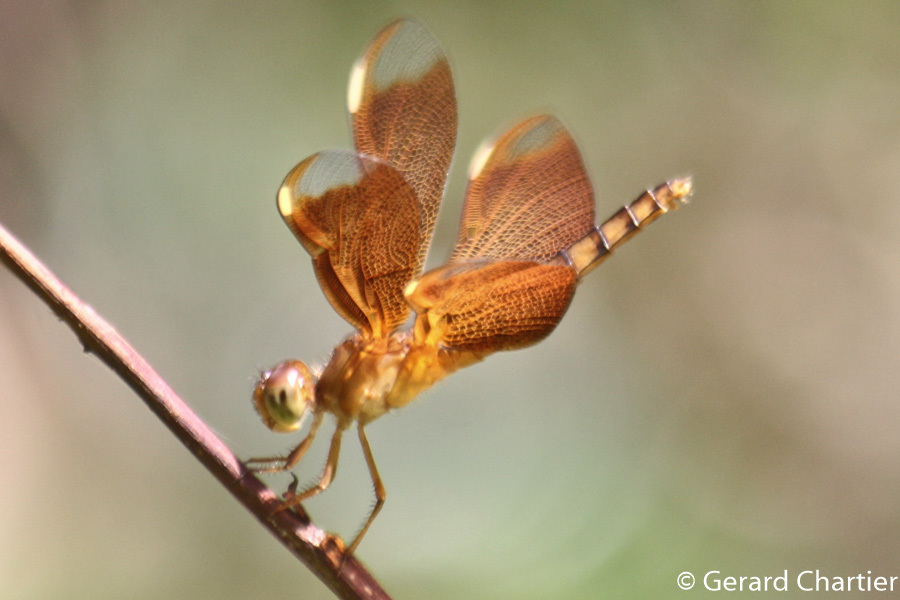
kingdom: Animalia
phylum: Arthropoda
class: Insecta
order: Odonata
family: Libellulidae
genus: Neurothemis
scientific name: Neurothemis fulvia
